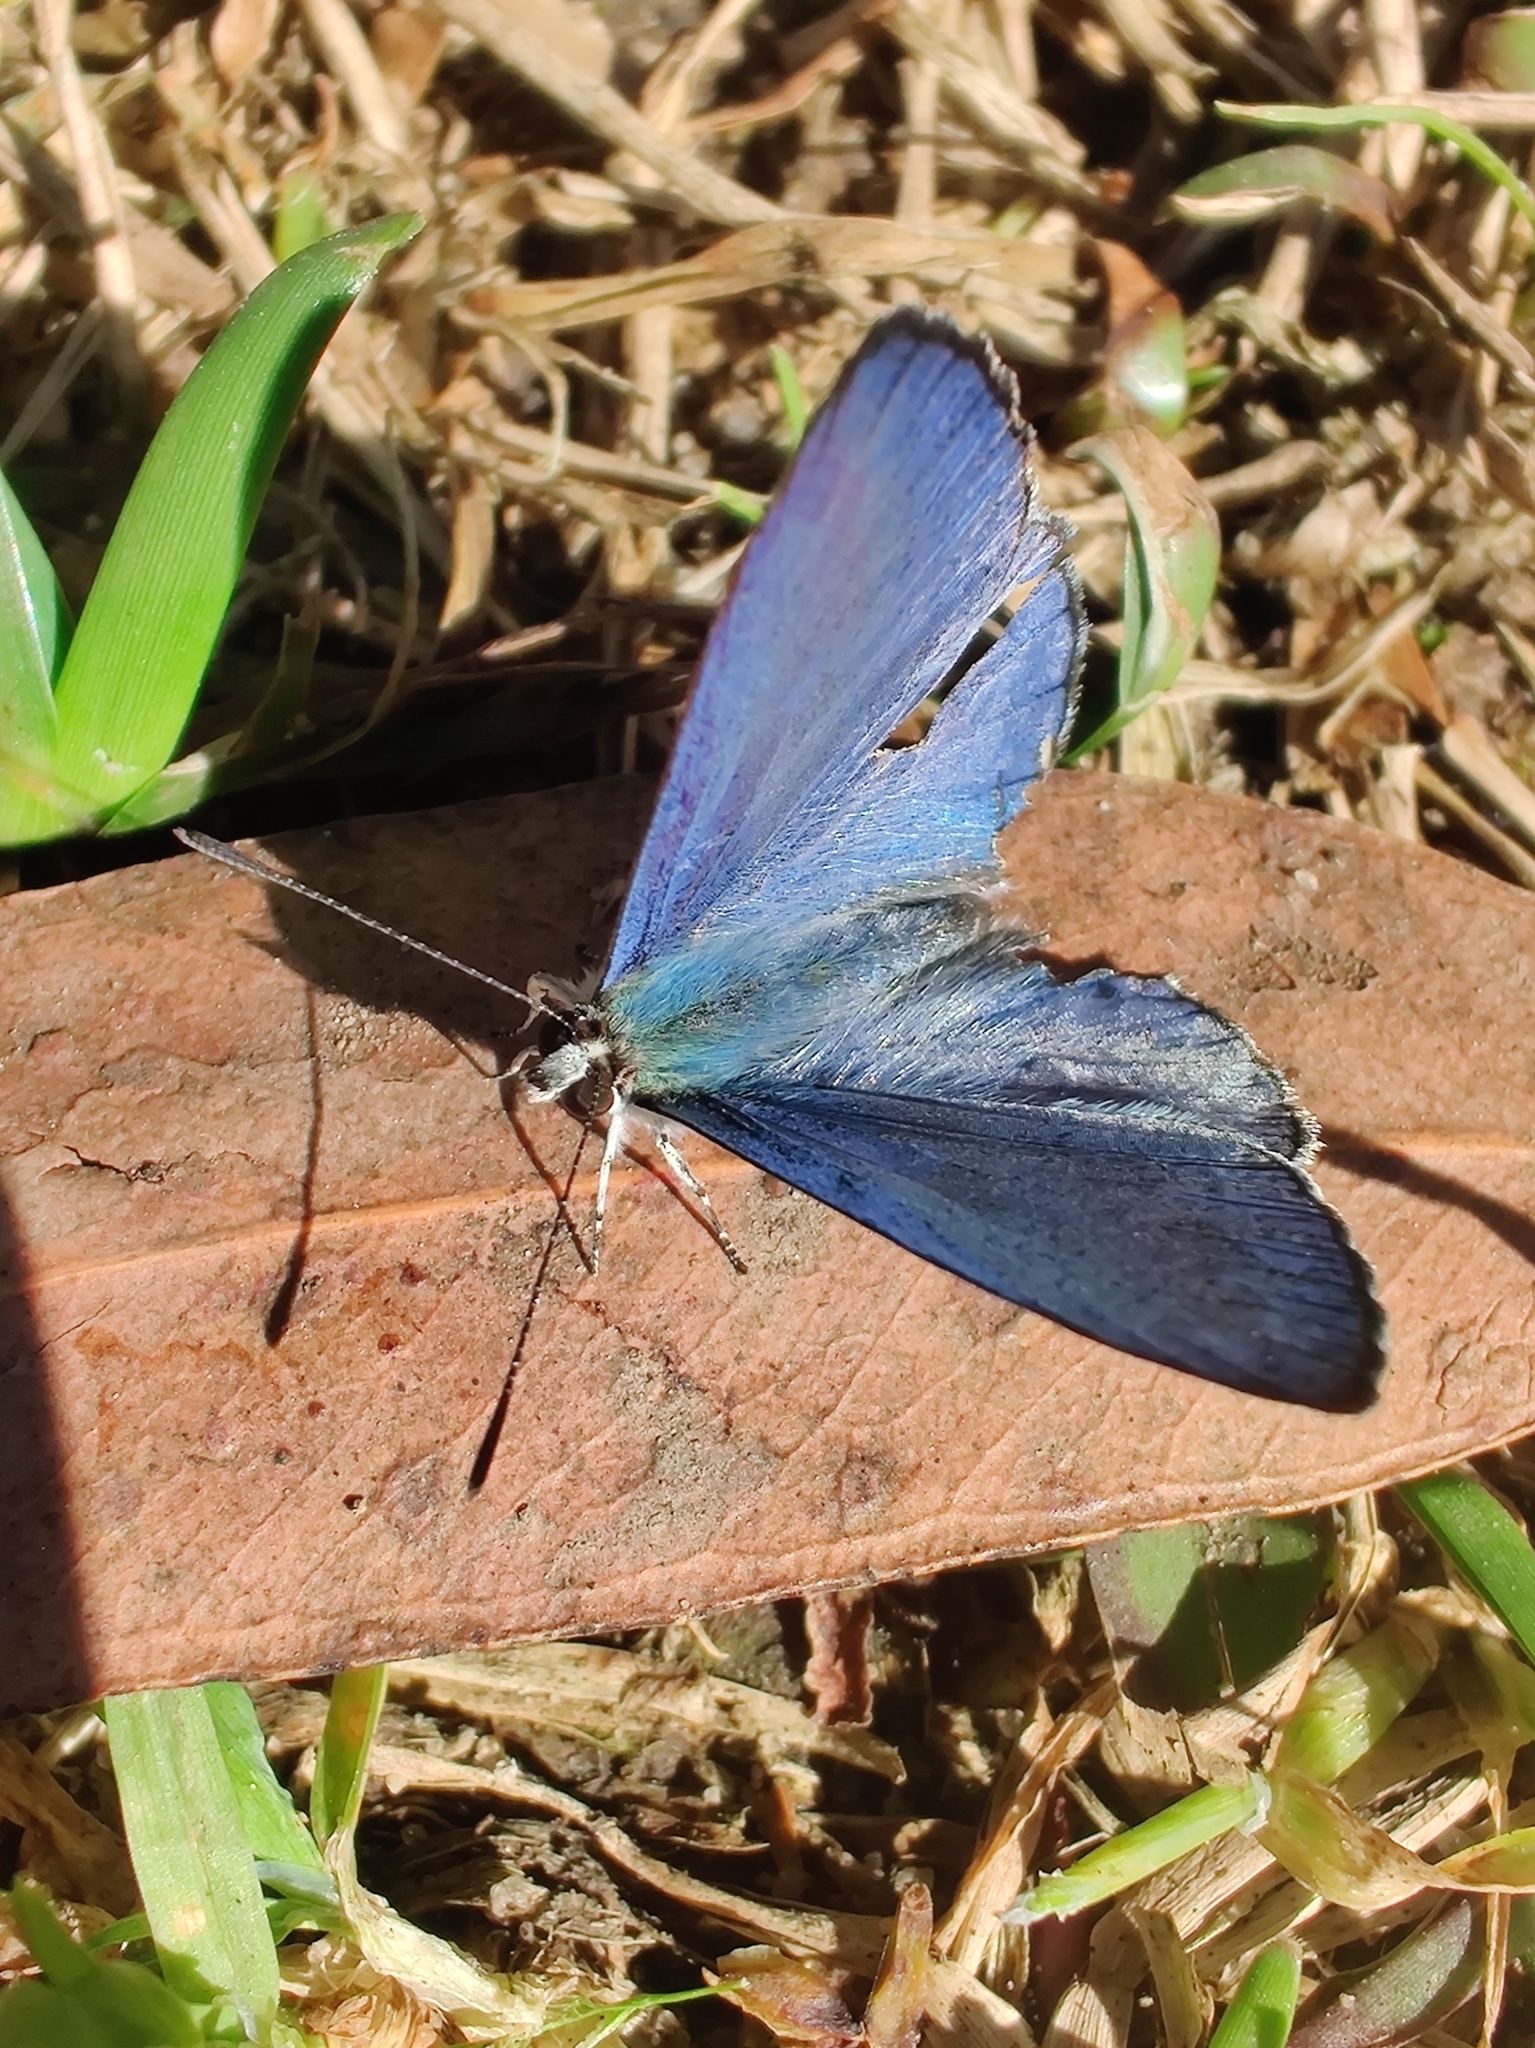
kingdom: Animalia
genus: Eirmocides
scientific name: Eirmocides
